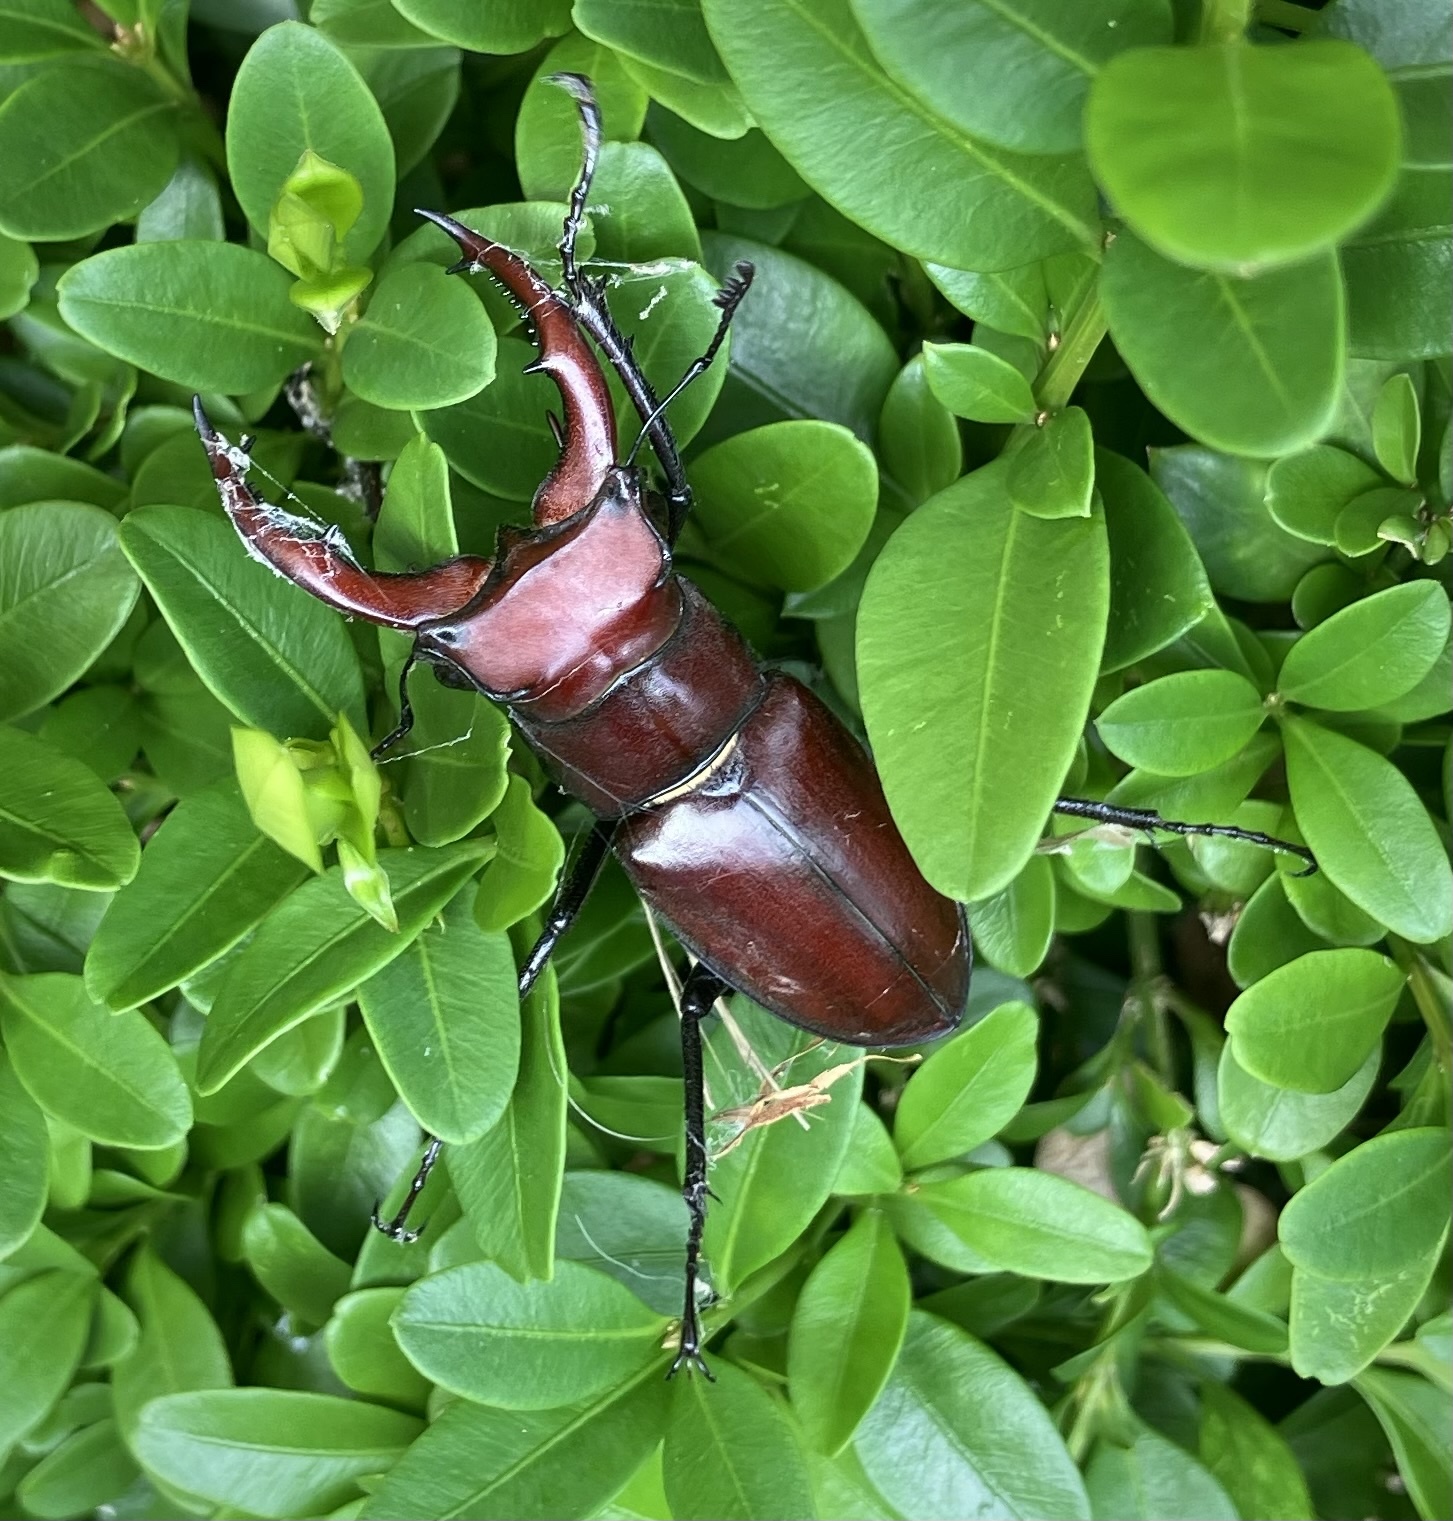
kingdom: Animalia
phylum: Arthropoda
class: Insecta
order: Coleoptera
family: Lucanidae
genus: Lucanus
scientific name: Lucanus elaphus
